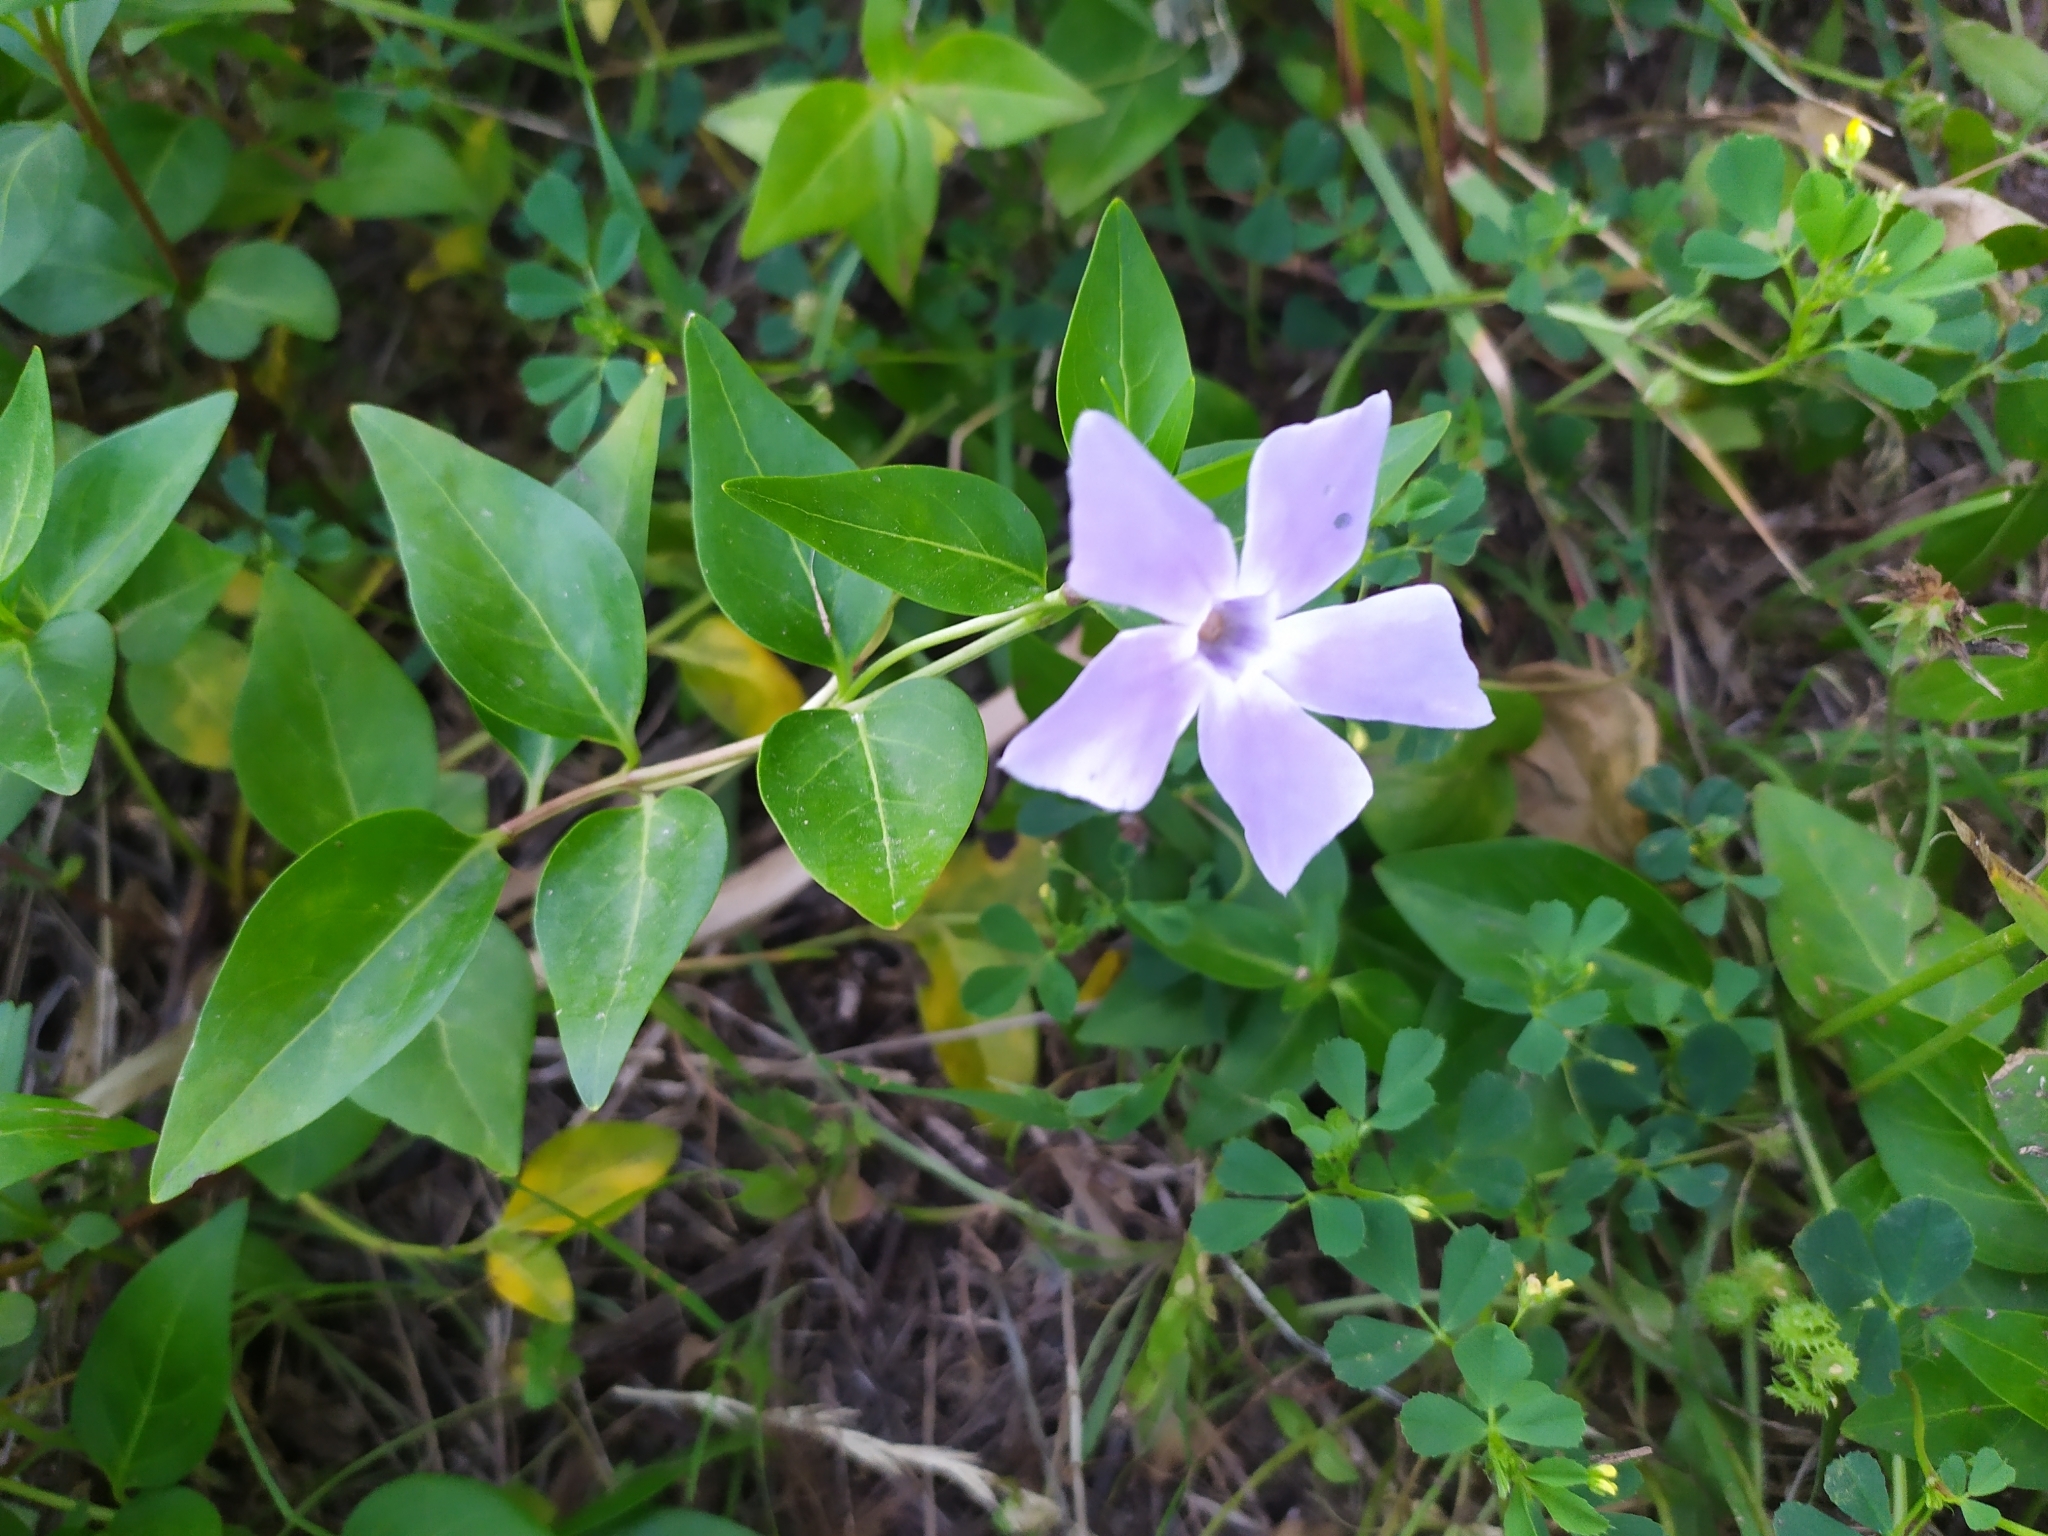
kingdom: Plantae
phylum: Tracheophyta
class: Magnoliopsida
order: Gentianales
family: Apocynaceae
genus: Vinca
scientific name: Vinca difformis
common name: Intermediate periwinkle
